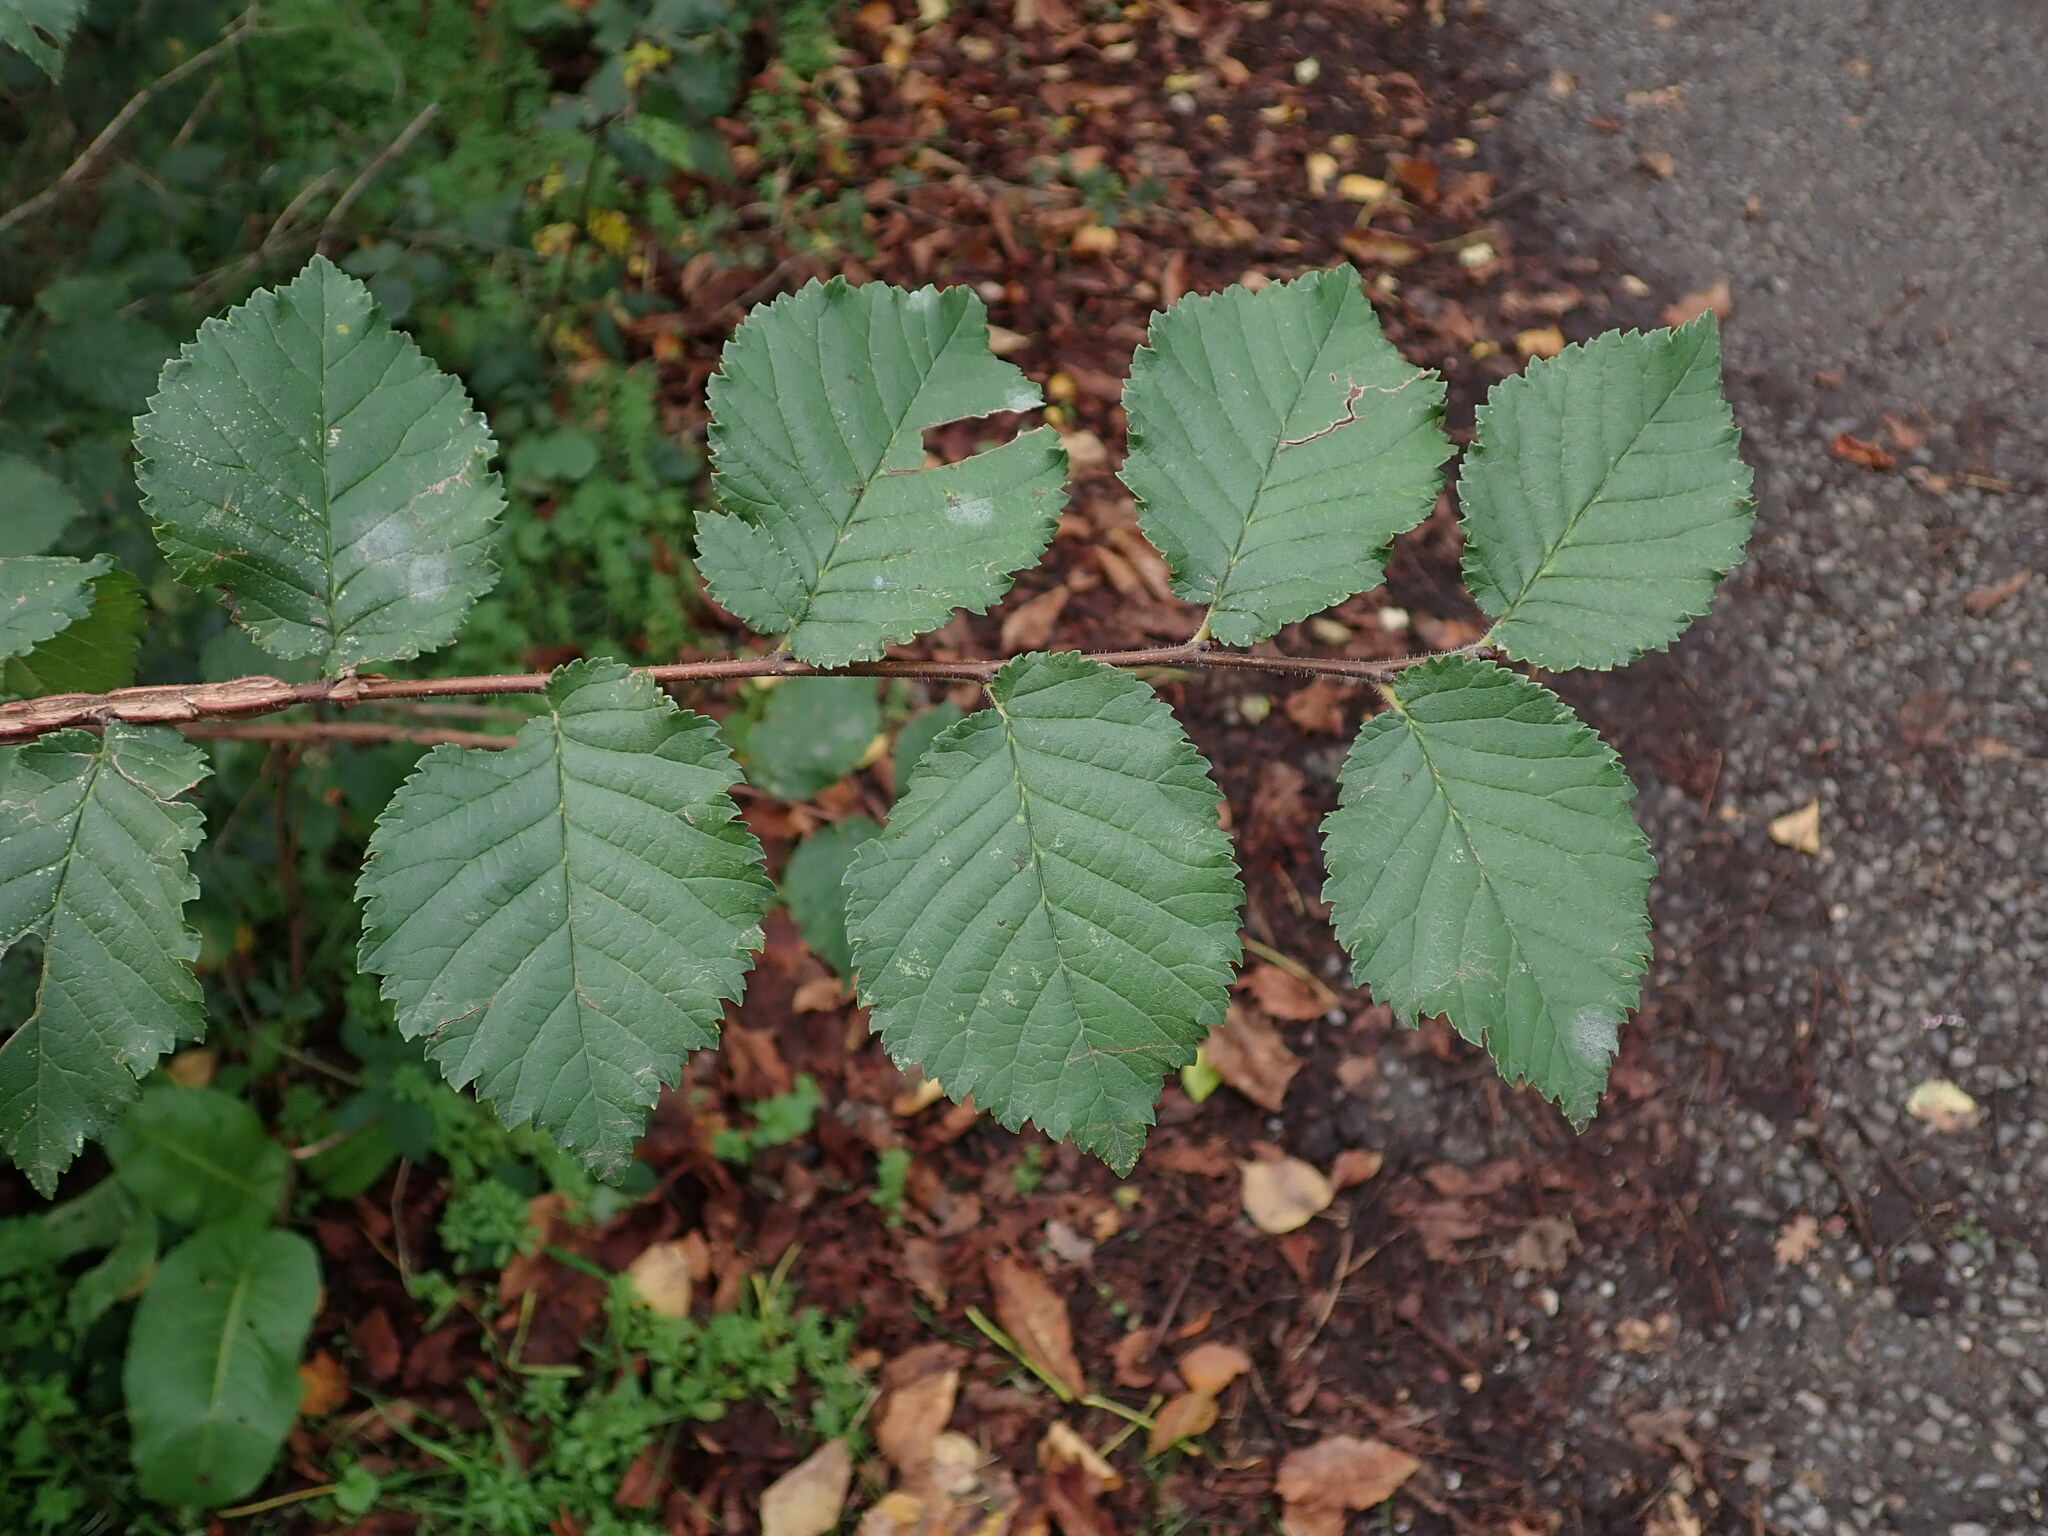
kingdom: Plantae
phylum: Tracheophyta
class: Magnoliopsida
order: Rosales
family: Ulmaceae
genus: Ulmus
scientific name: Ulmus minor
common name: Small-leaved elm
